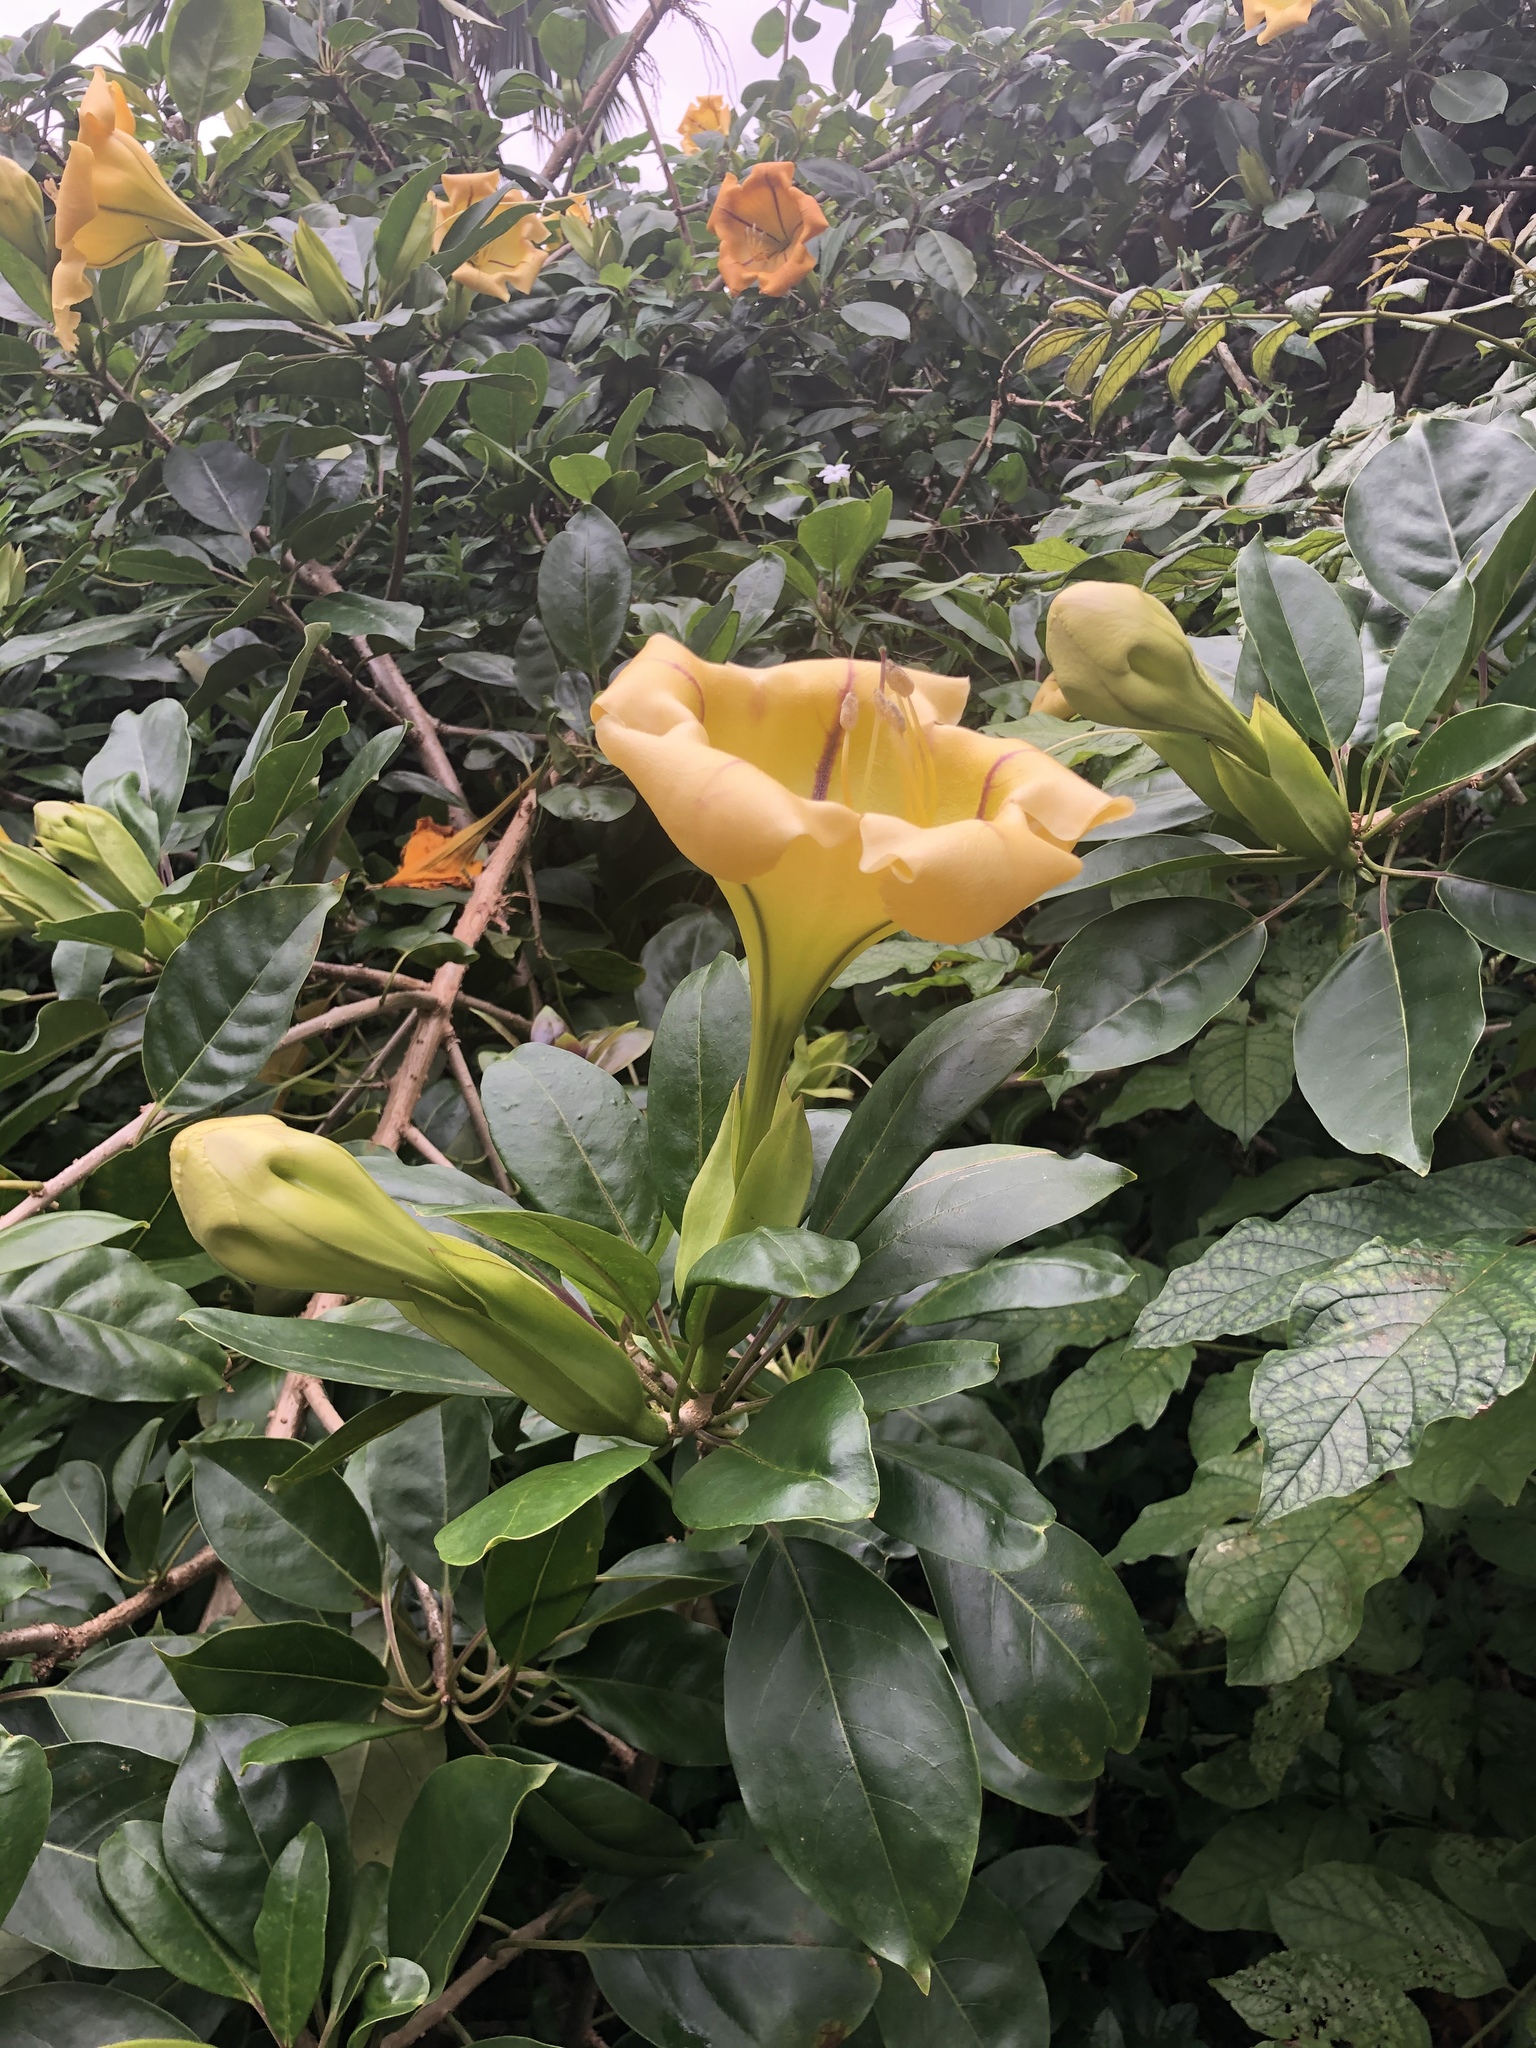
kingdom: Plantae
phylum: Tracheophyta
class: Magnoliopsida
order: Solanales
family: Solanaceae
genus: Solandra
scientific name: Solandra maxima
